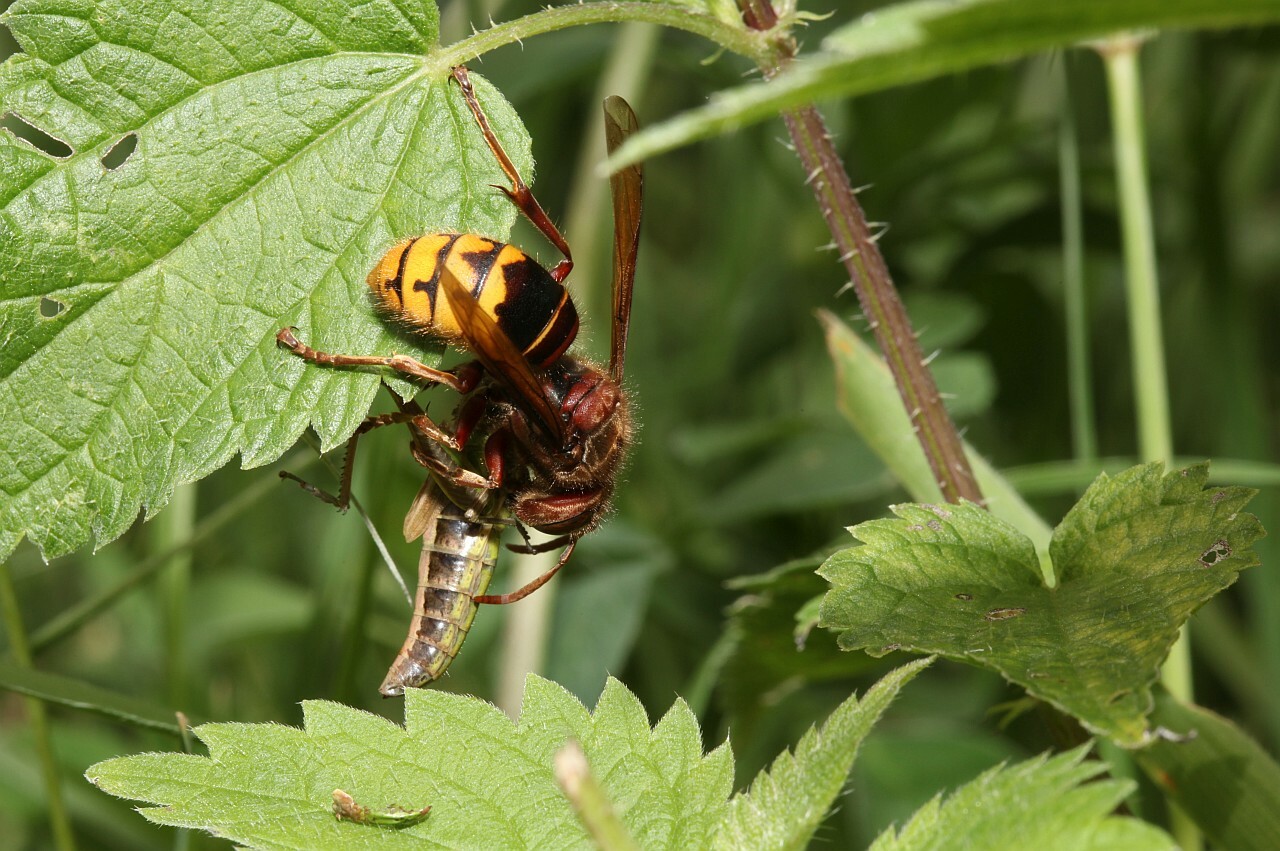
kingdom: Animalia
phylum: Arthropoda
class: Insecta
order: Hymenoptera
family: Vespidae
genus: Vespa
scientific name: Vespa crabro
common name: Hornet
